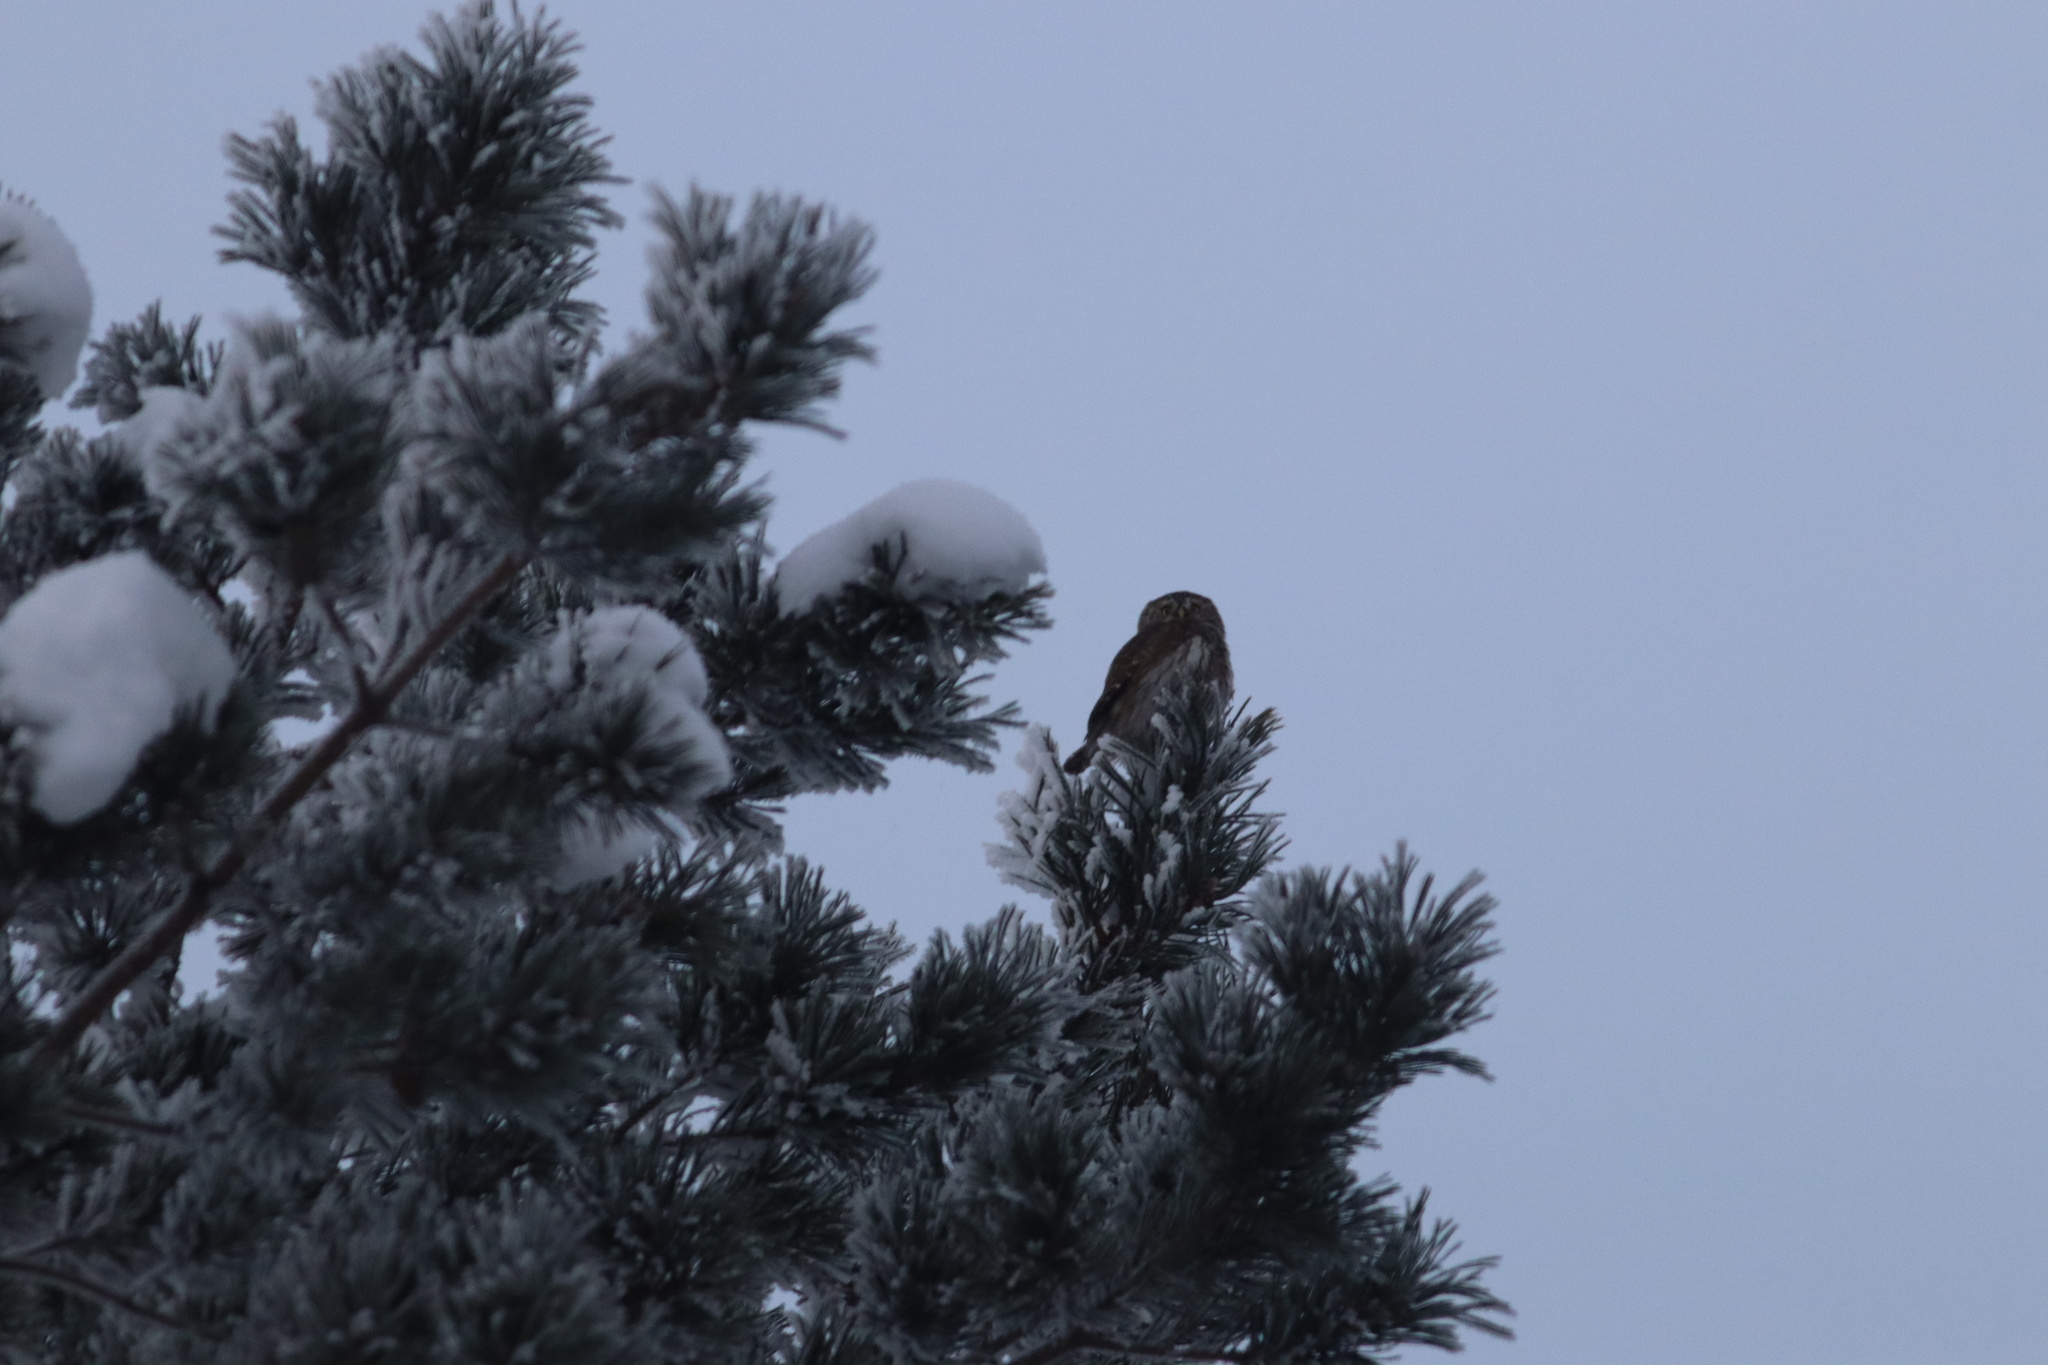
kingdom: Animalia
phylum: Chordata
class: Aves
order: Strigiformes
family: Strigidae
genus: Glaucidium
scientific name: Glaucidium passerinum
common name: Eurasian pygmy owl
